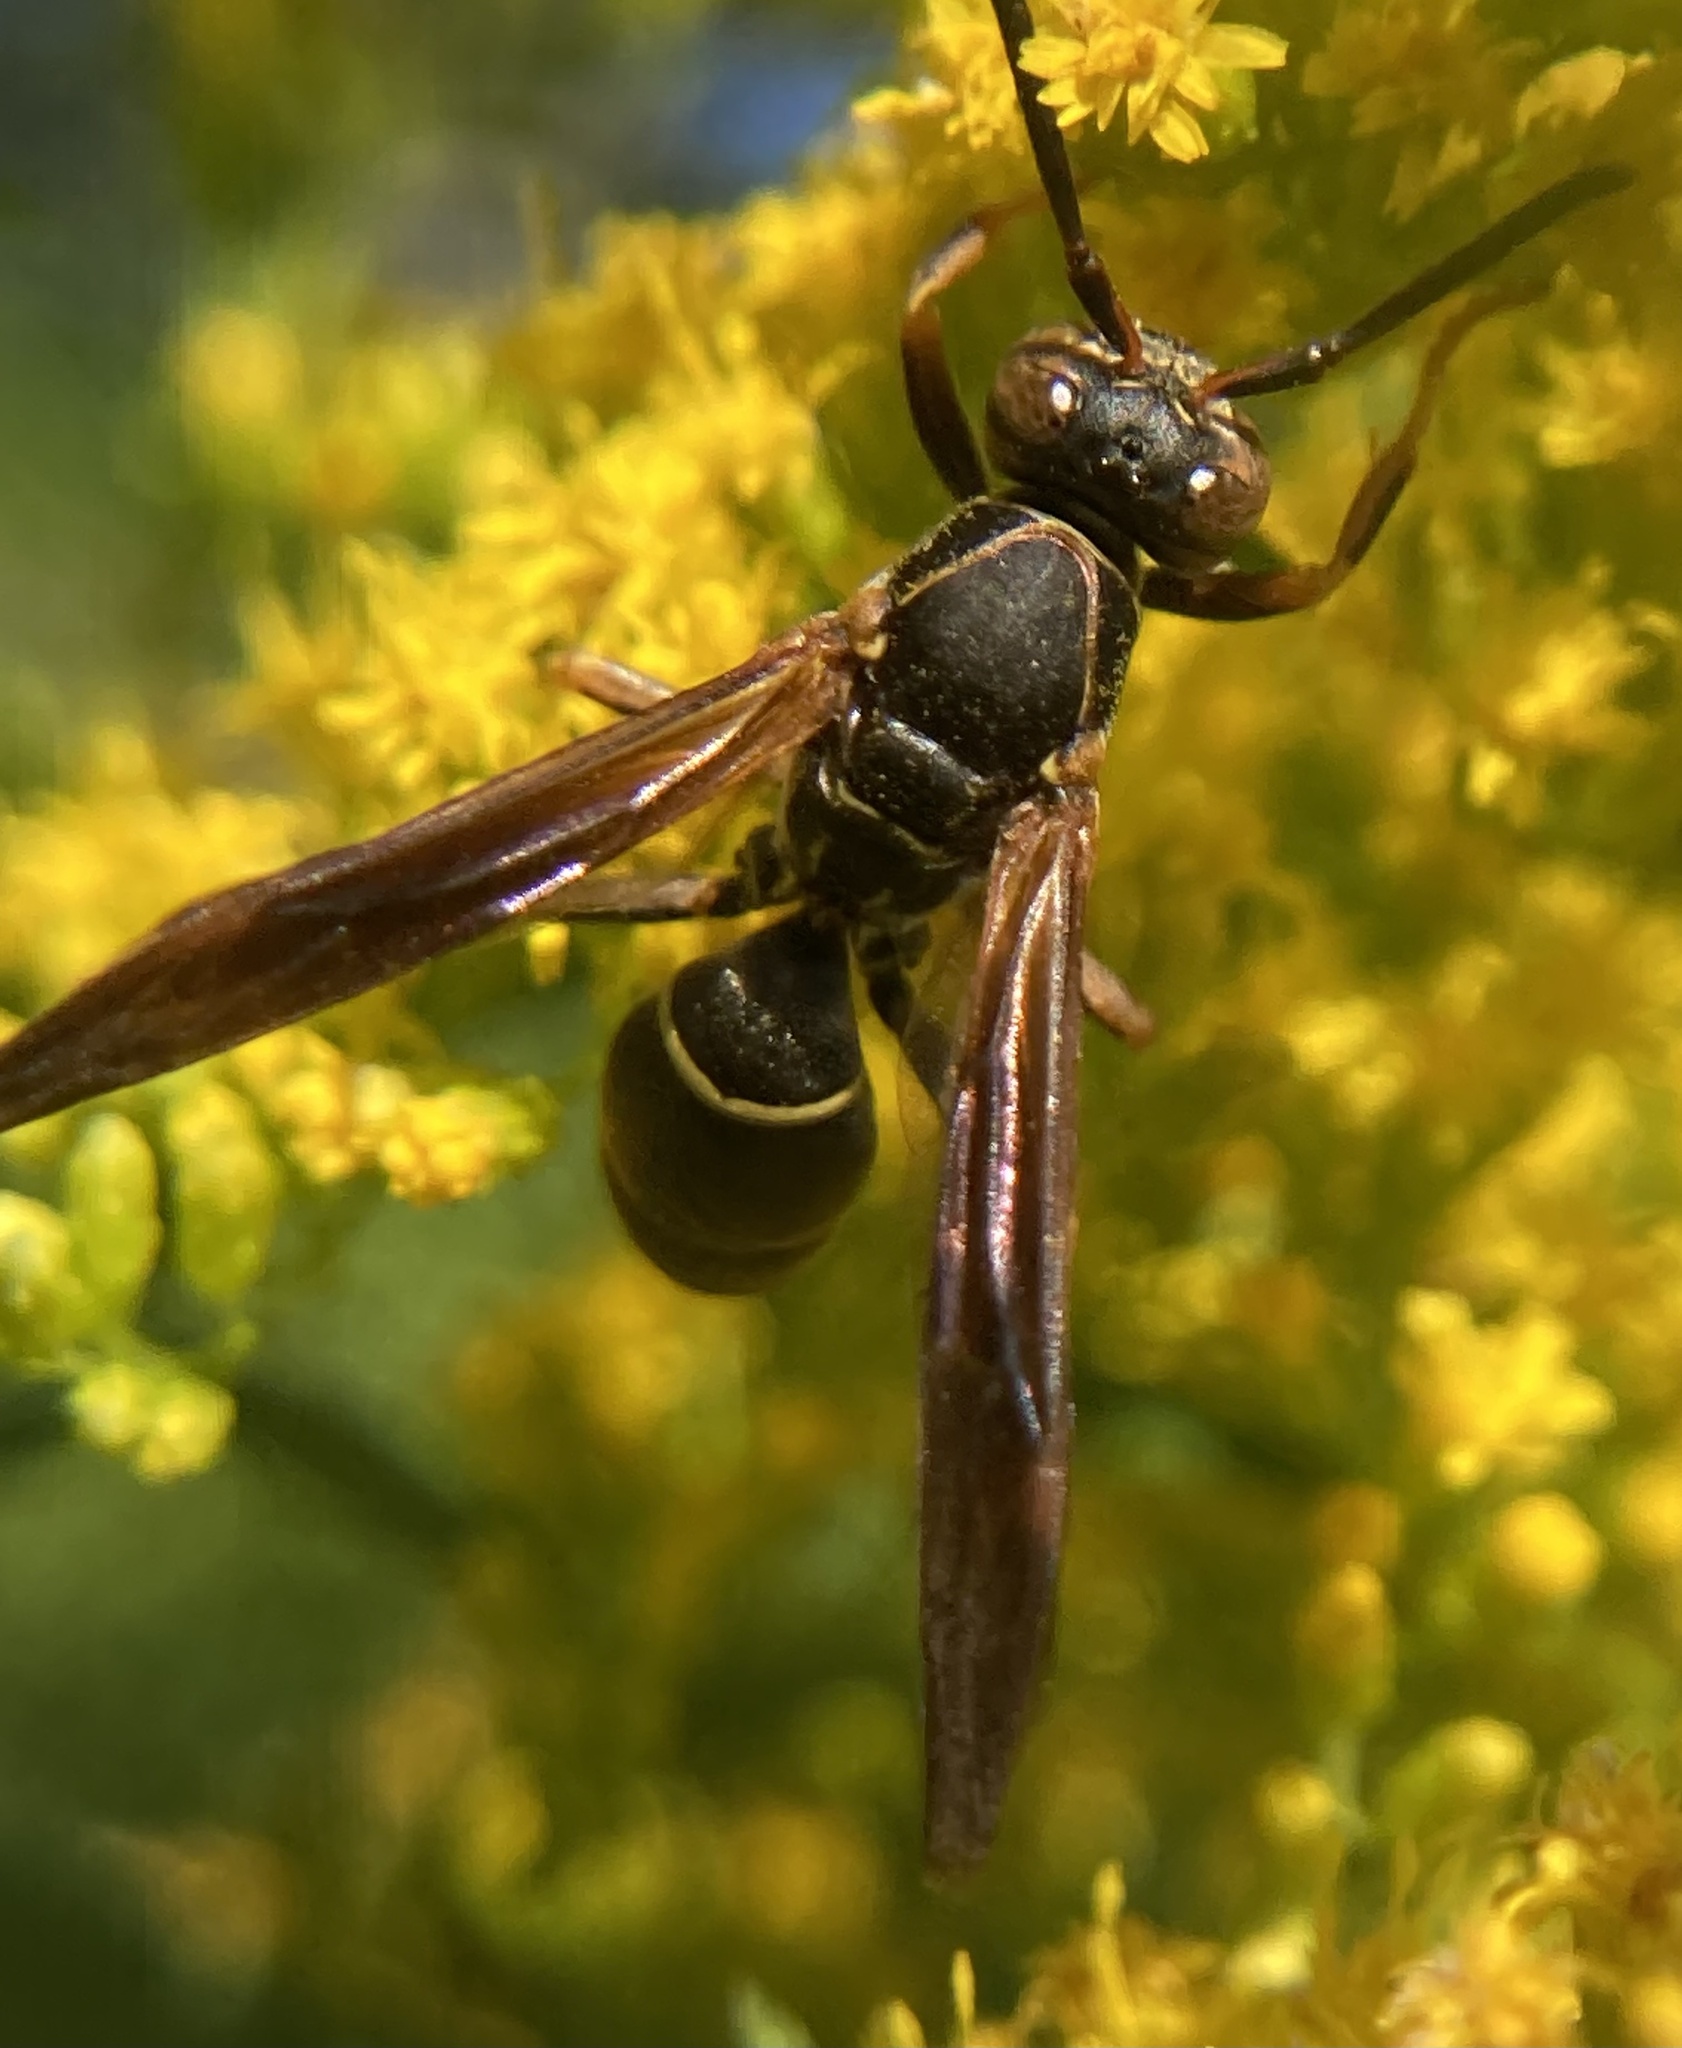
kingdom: Animalia
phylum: Arthropoda
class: Insecta
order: Hymenoptera
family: Eumenidae
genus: Polistes
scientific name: Polistes fuscatus
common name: Dark paper wasp
